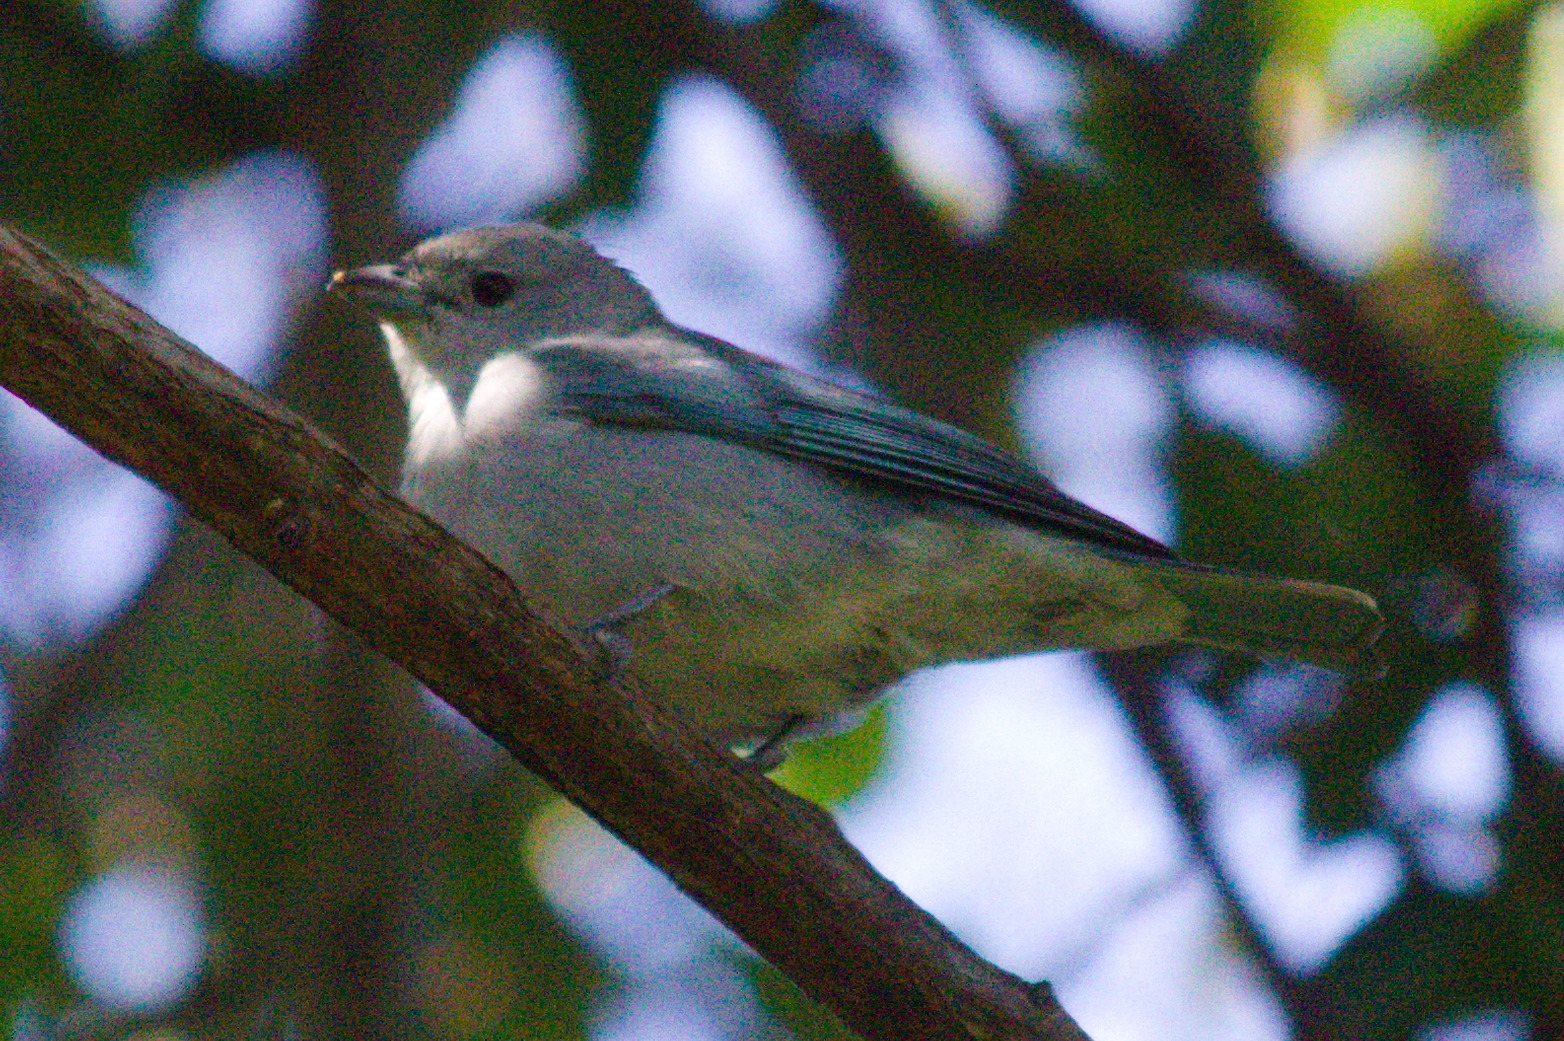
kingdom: Animalia
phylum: Chordata
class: Aves
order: Passeriformes
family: Thraupidae
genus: Thraupis
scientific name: Thraupis sayaca
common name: Sayaca tanager
